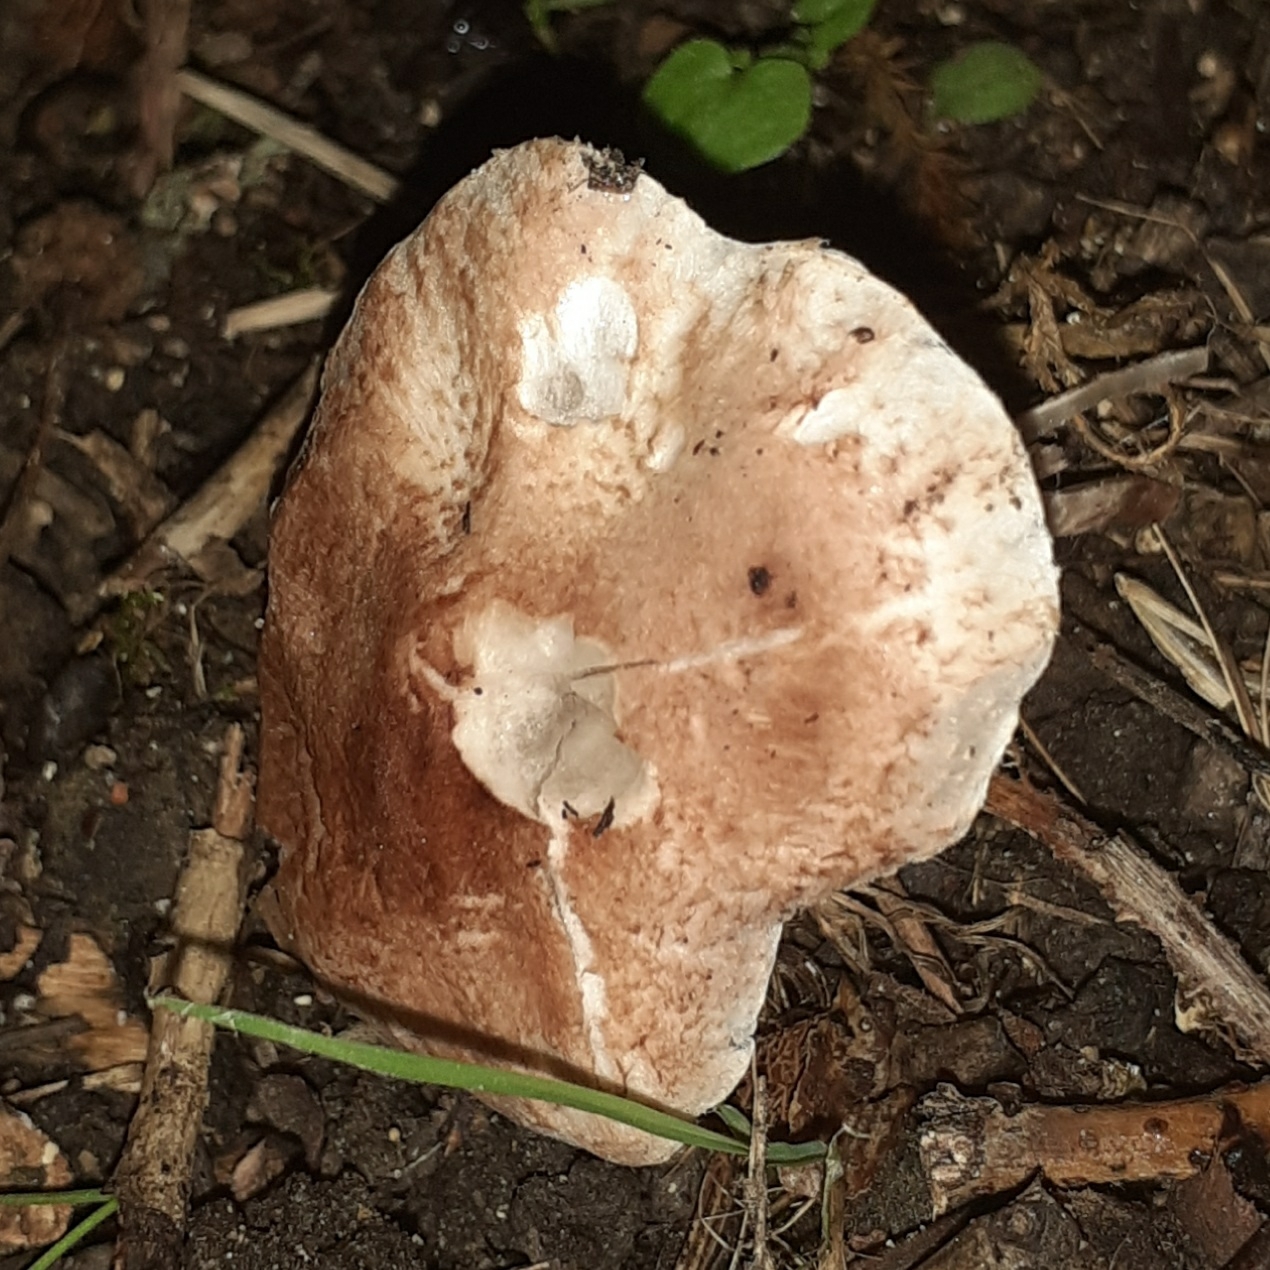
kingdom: Fungi
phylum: Basidiomycota
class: Agaricomycetes
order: Agaricales
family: Agaricaceae
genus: Lepiota
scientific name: Lepiota subincarnata
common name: Fatal dapperling
